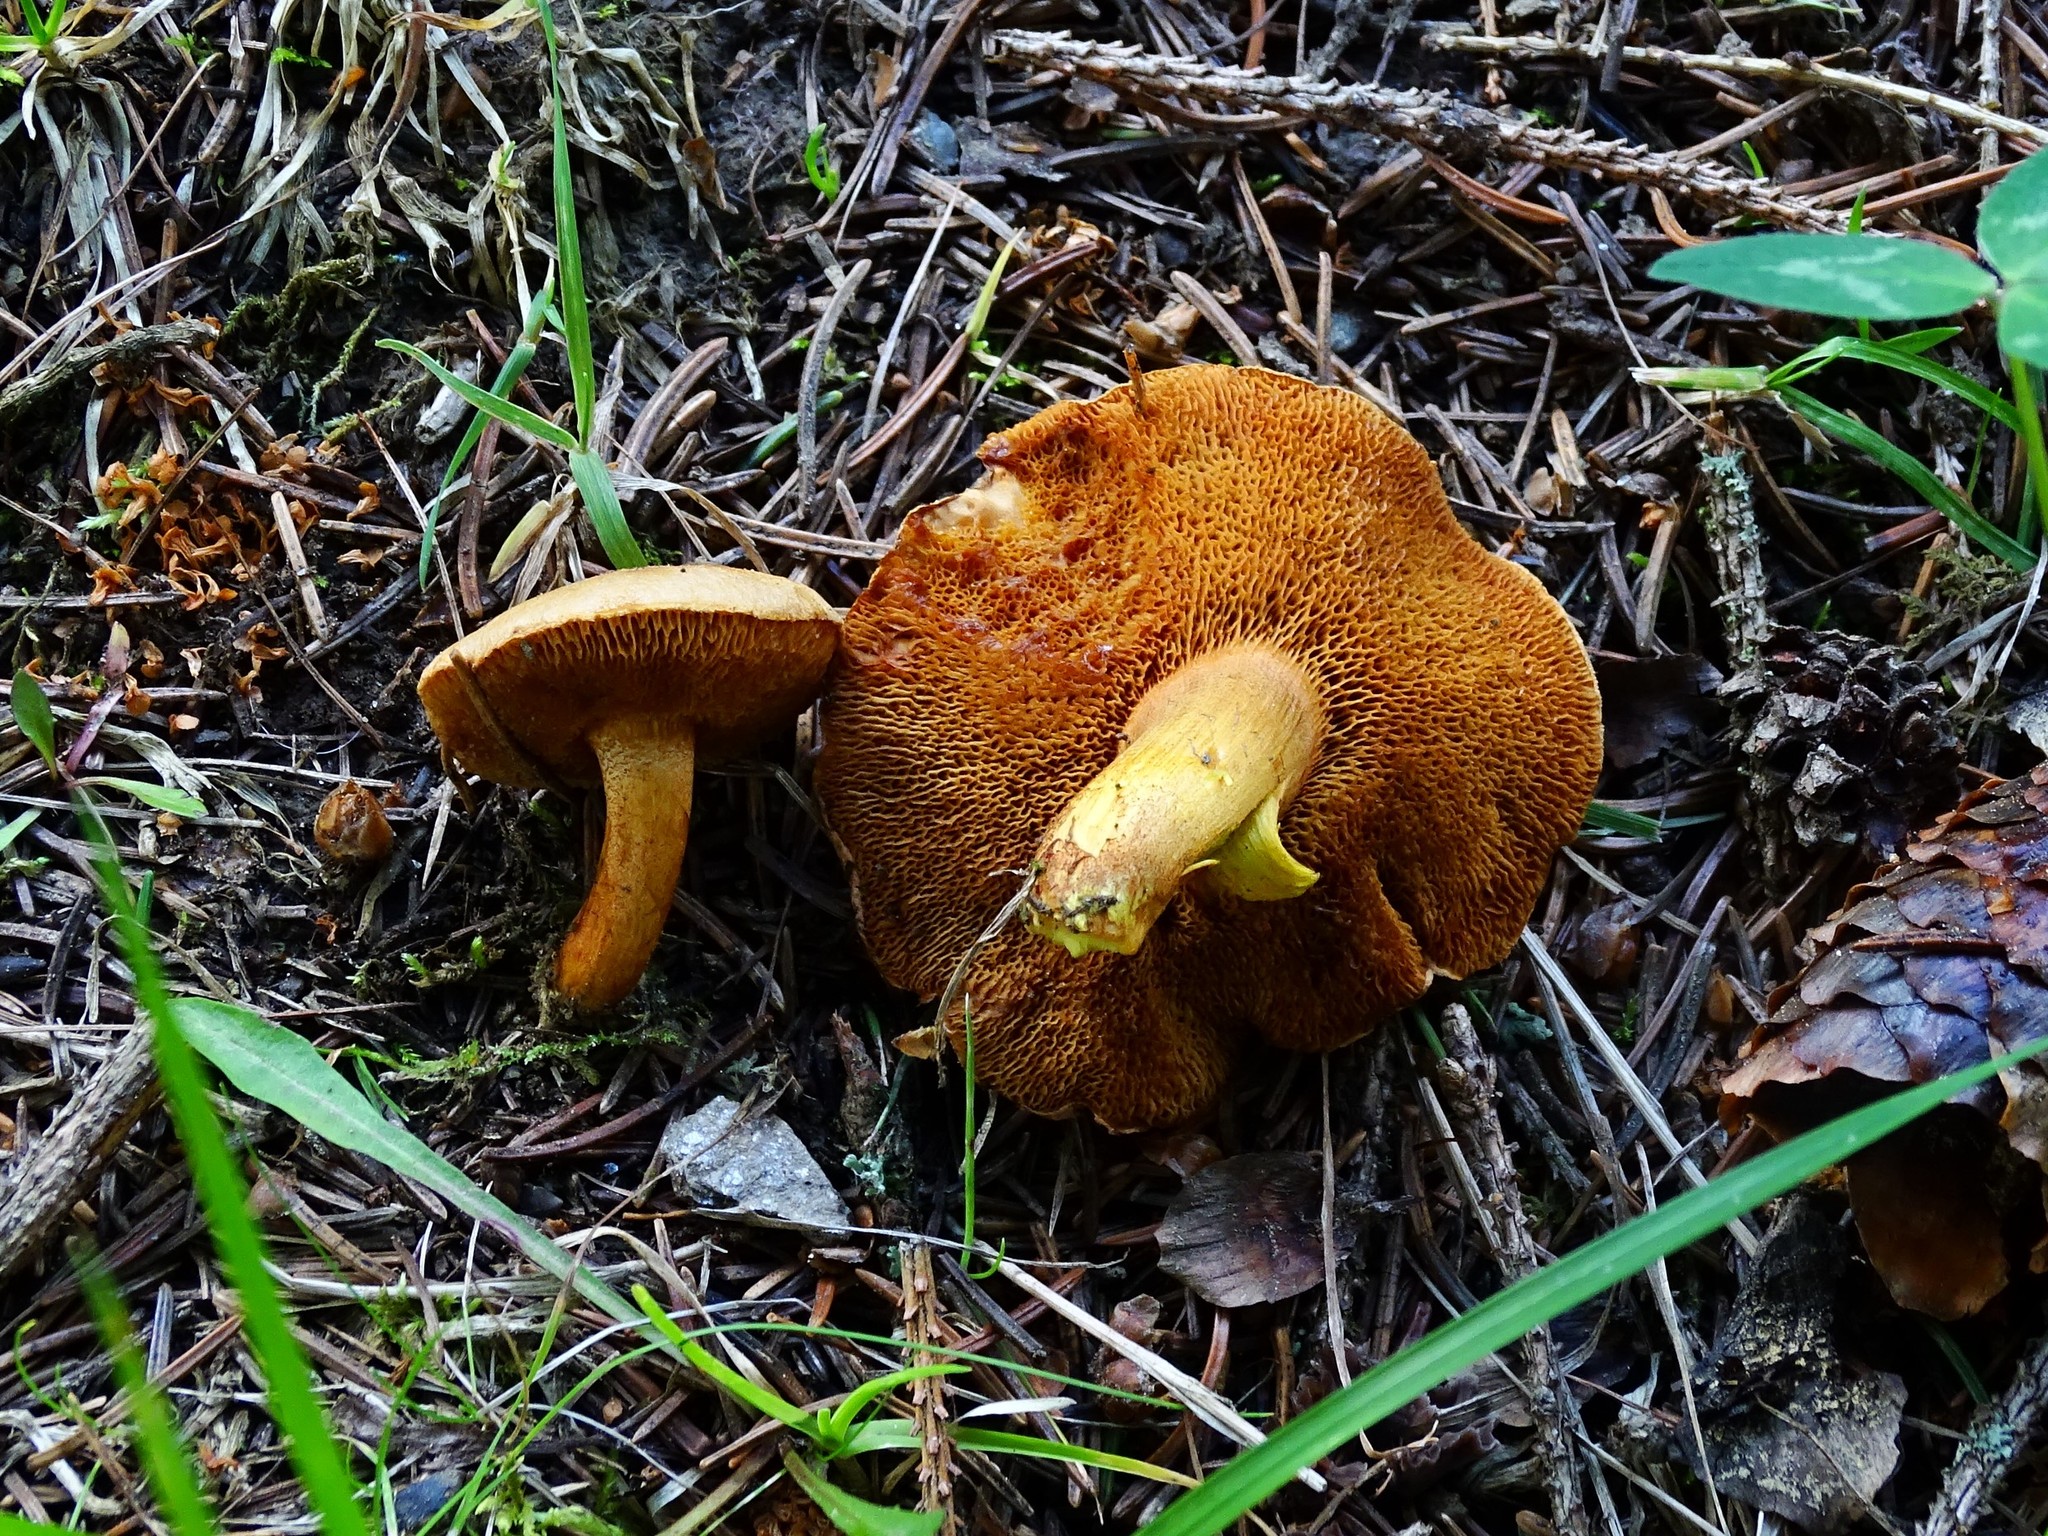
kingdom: Fungi
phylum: Basidiomycota
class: Agaricomycetes
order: Boletales
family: Boletaceae
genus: Chalciporus
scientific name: Chalciporus piperatus
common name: Peppery bolete
